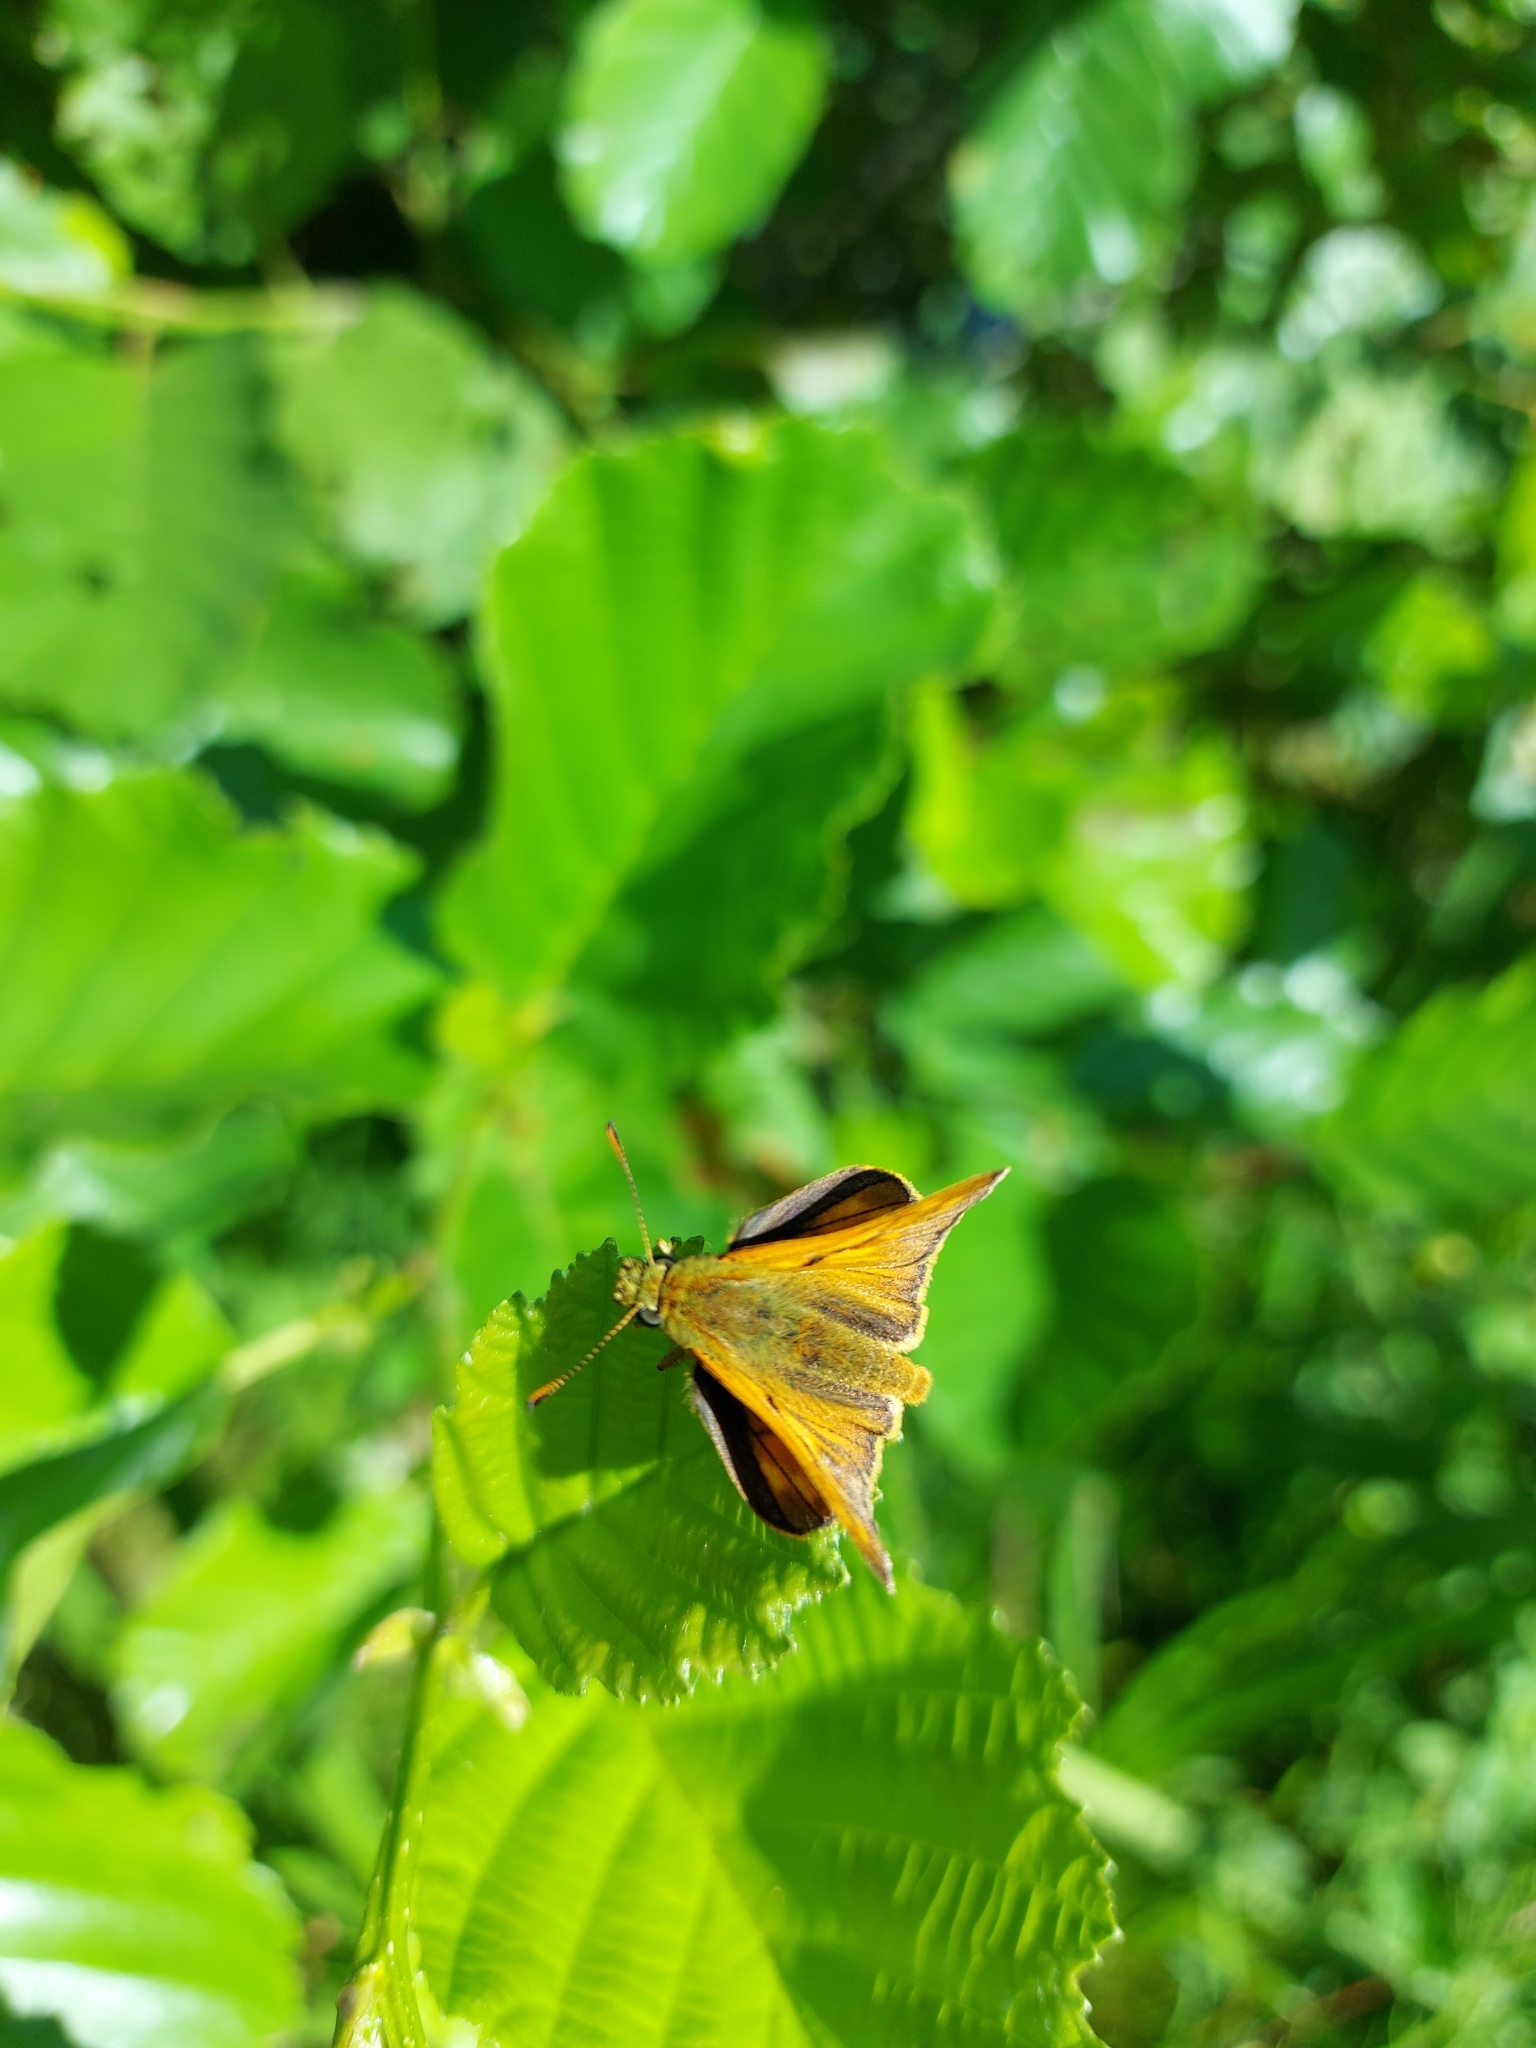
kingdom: Animalia
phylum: Arthropoda
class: Insecta
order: Lepidoptera
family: Hesperiidae
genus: Ochlodes
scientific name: Ochlodes venata
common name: Large skipper
